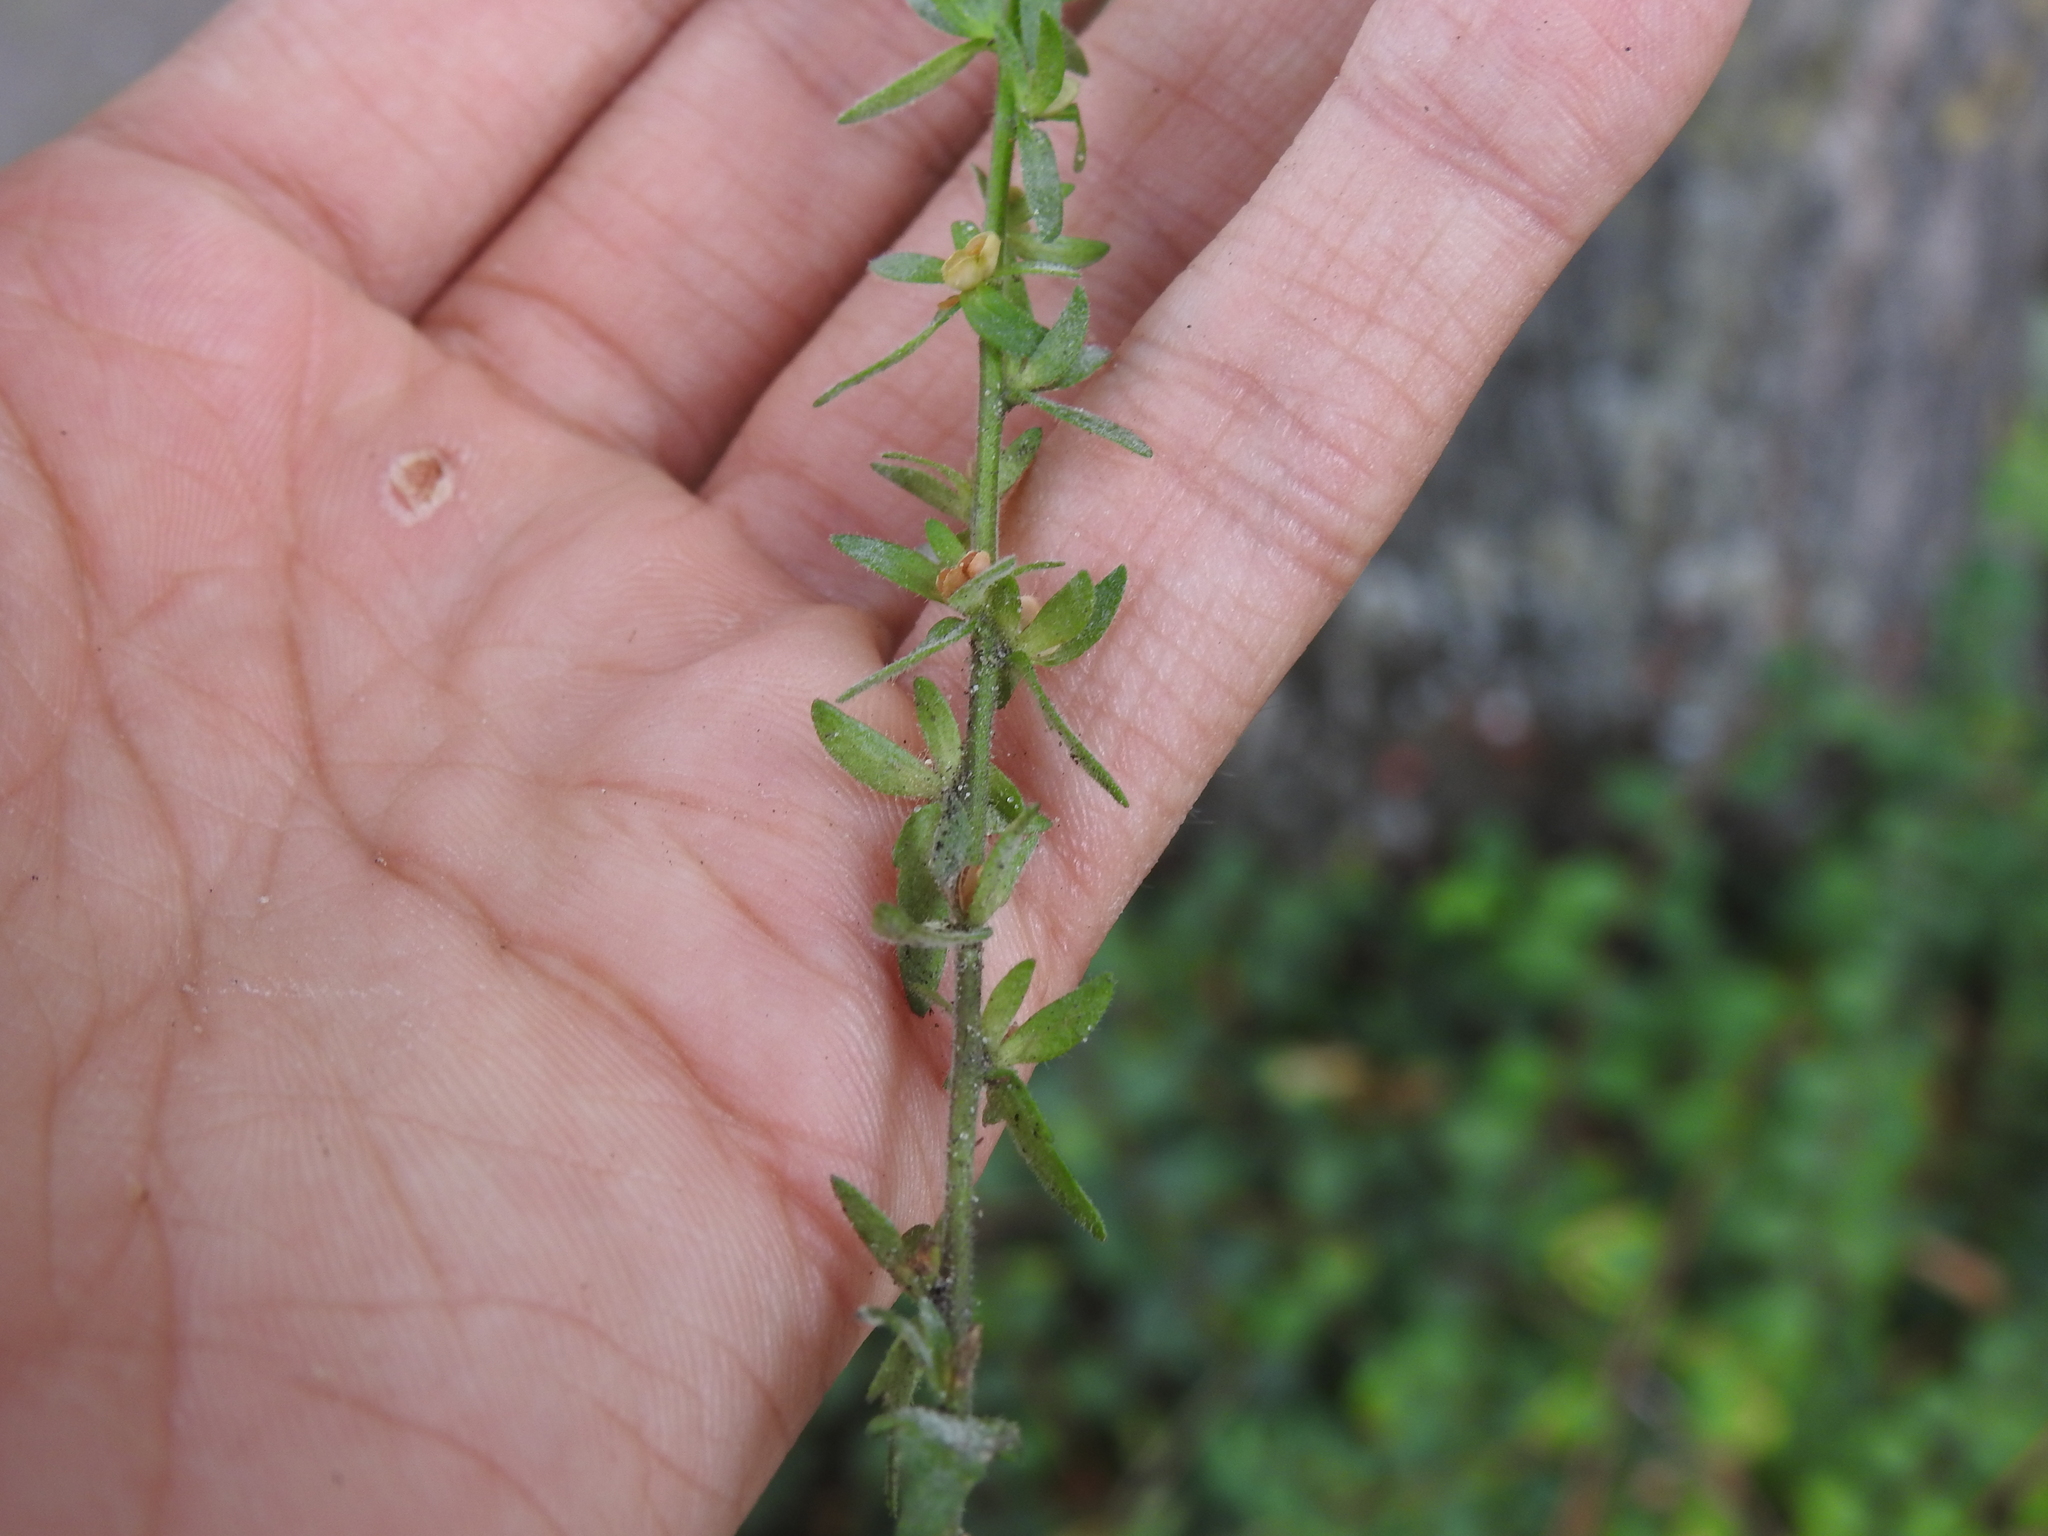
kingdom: Plantae
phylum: Tracheophyta
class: Magnoliopsida
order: Lamiales
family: Plantaginaceae
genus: Veronica
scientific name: Veronica arvensis
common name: Corn speedwell
